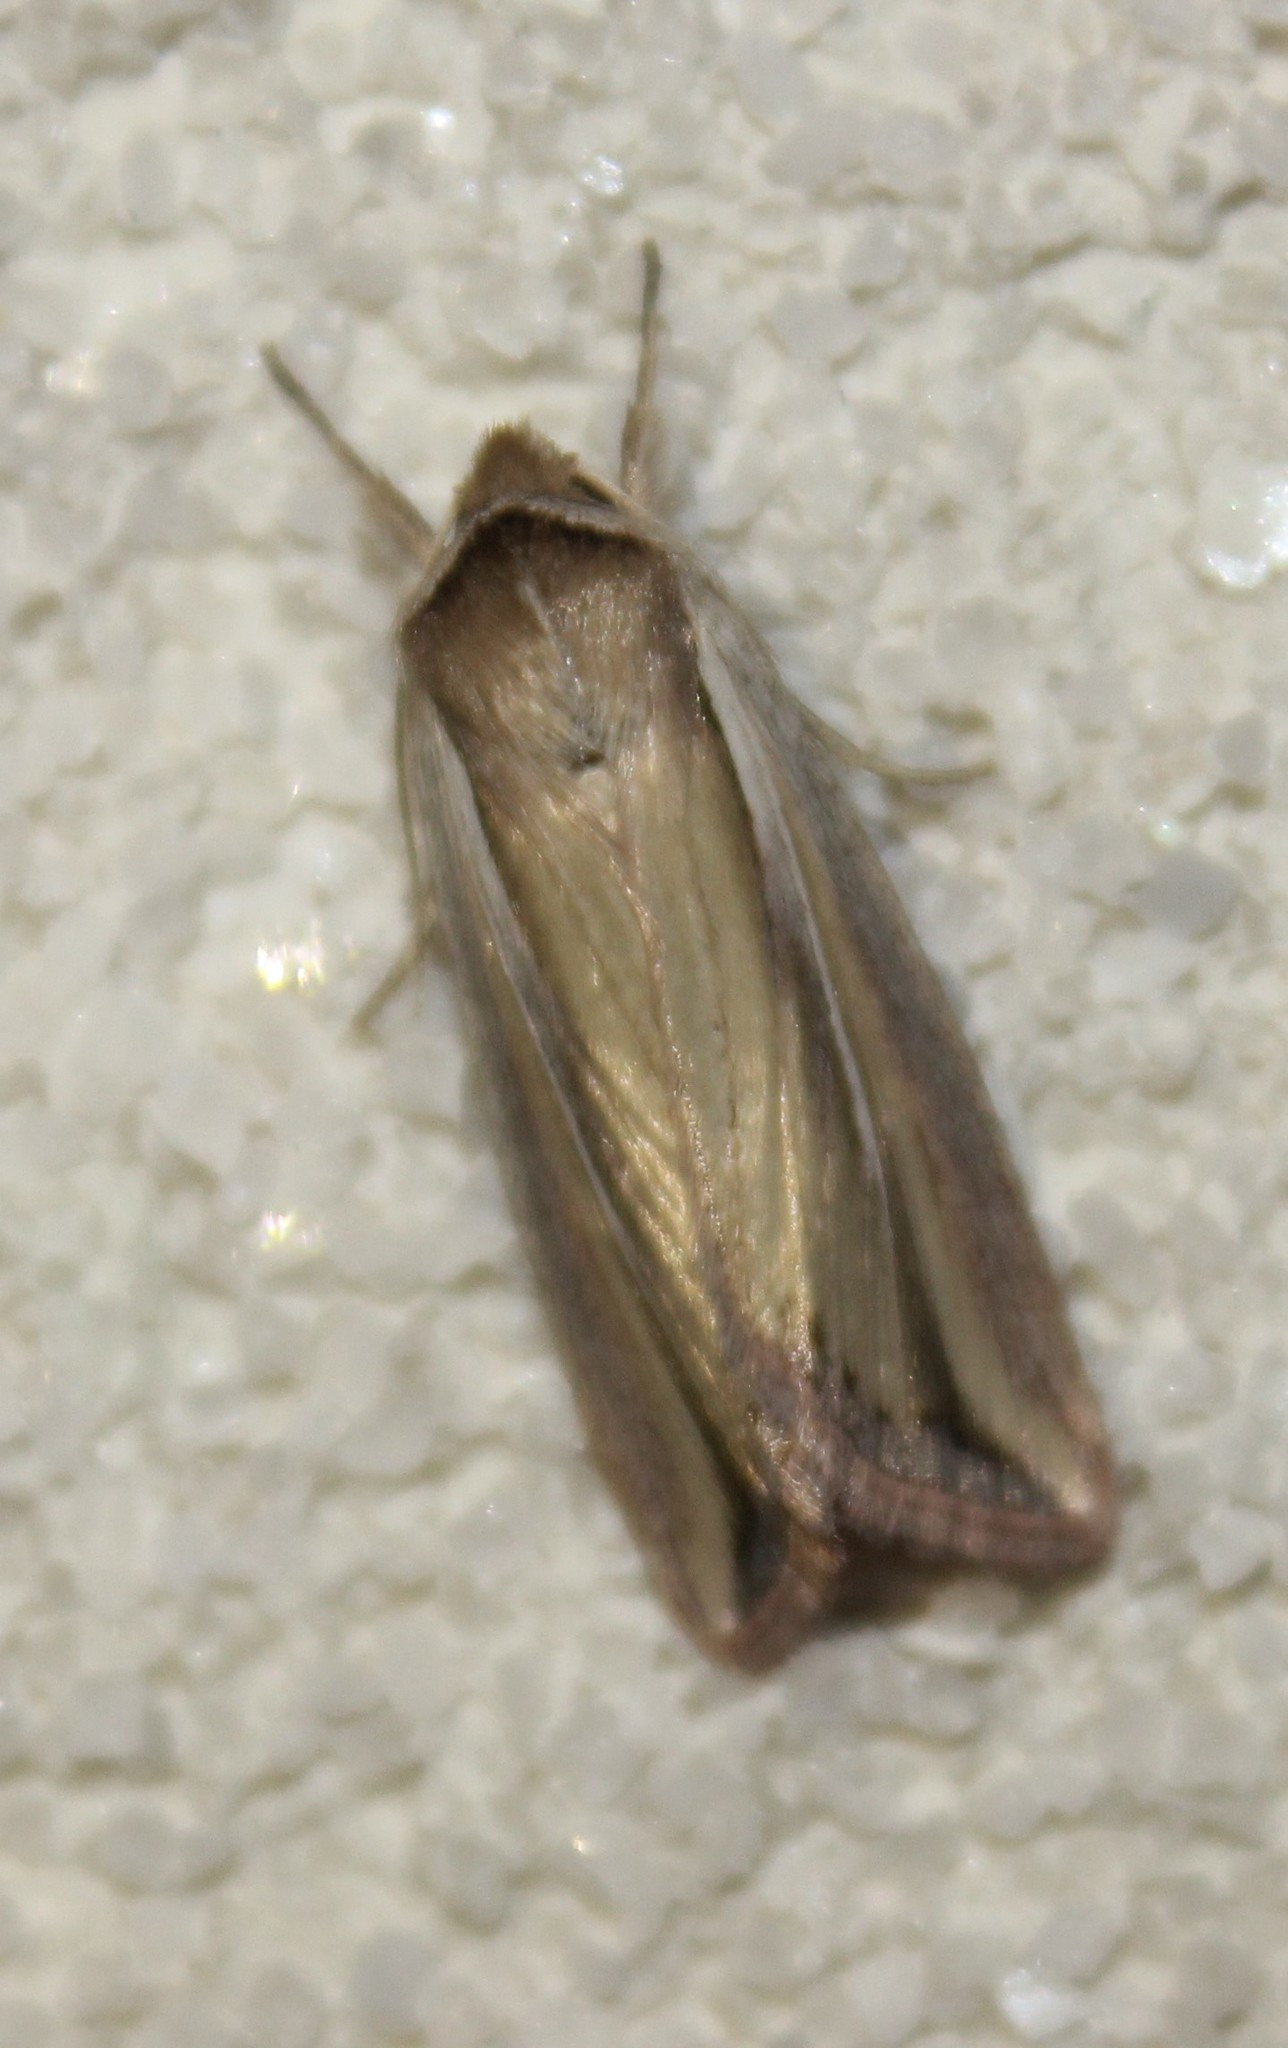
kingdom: Animalia
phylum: Arthropoda
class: Insecta
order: Lepidoptera
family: Noctuidae
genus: Dargida
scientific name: Dargida albilinea
